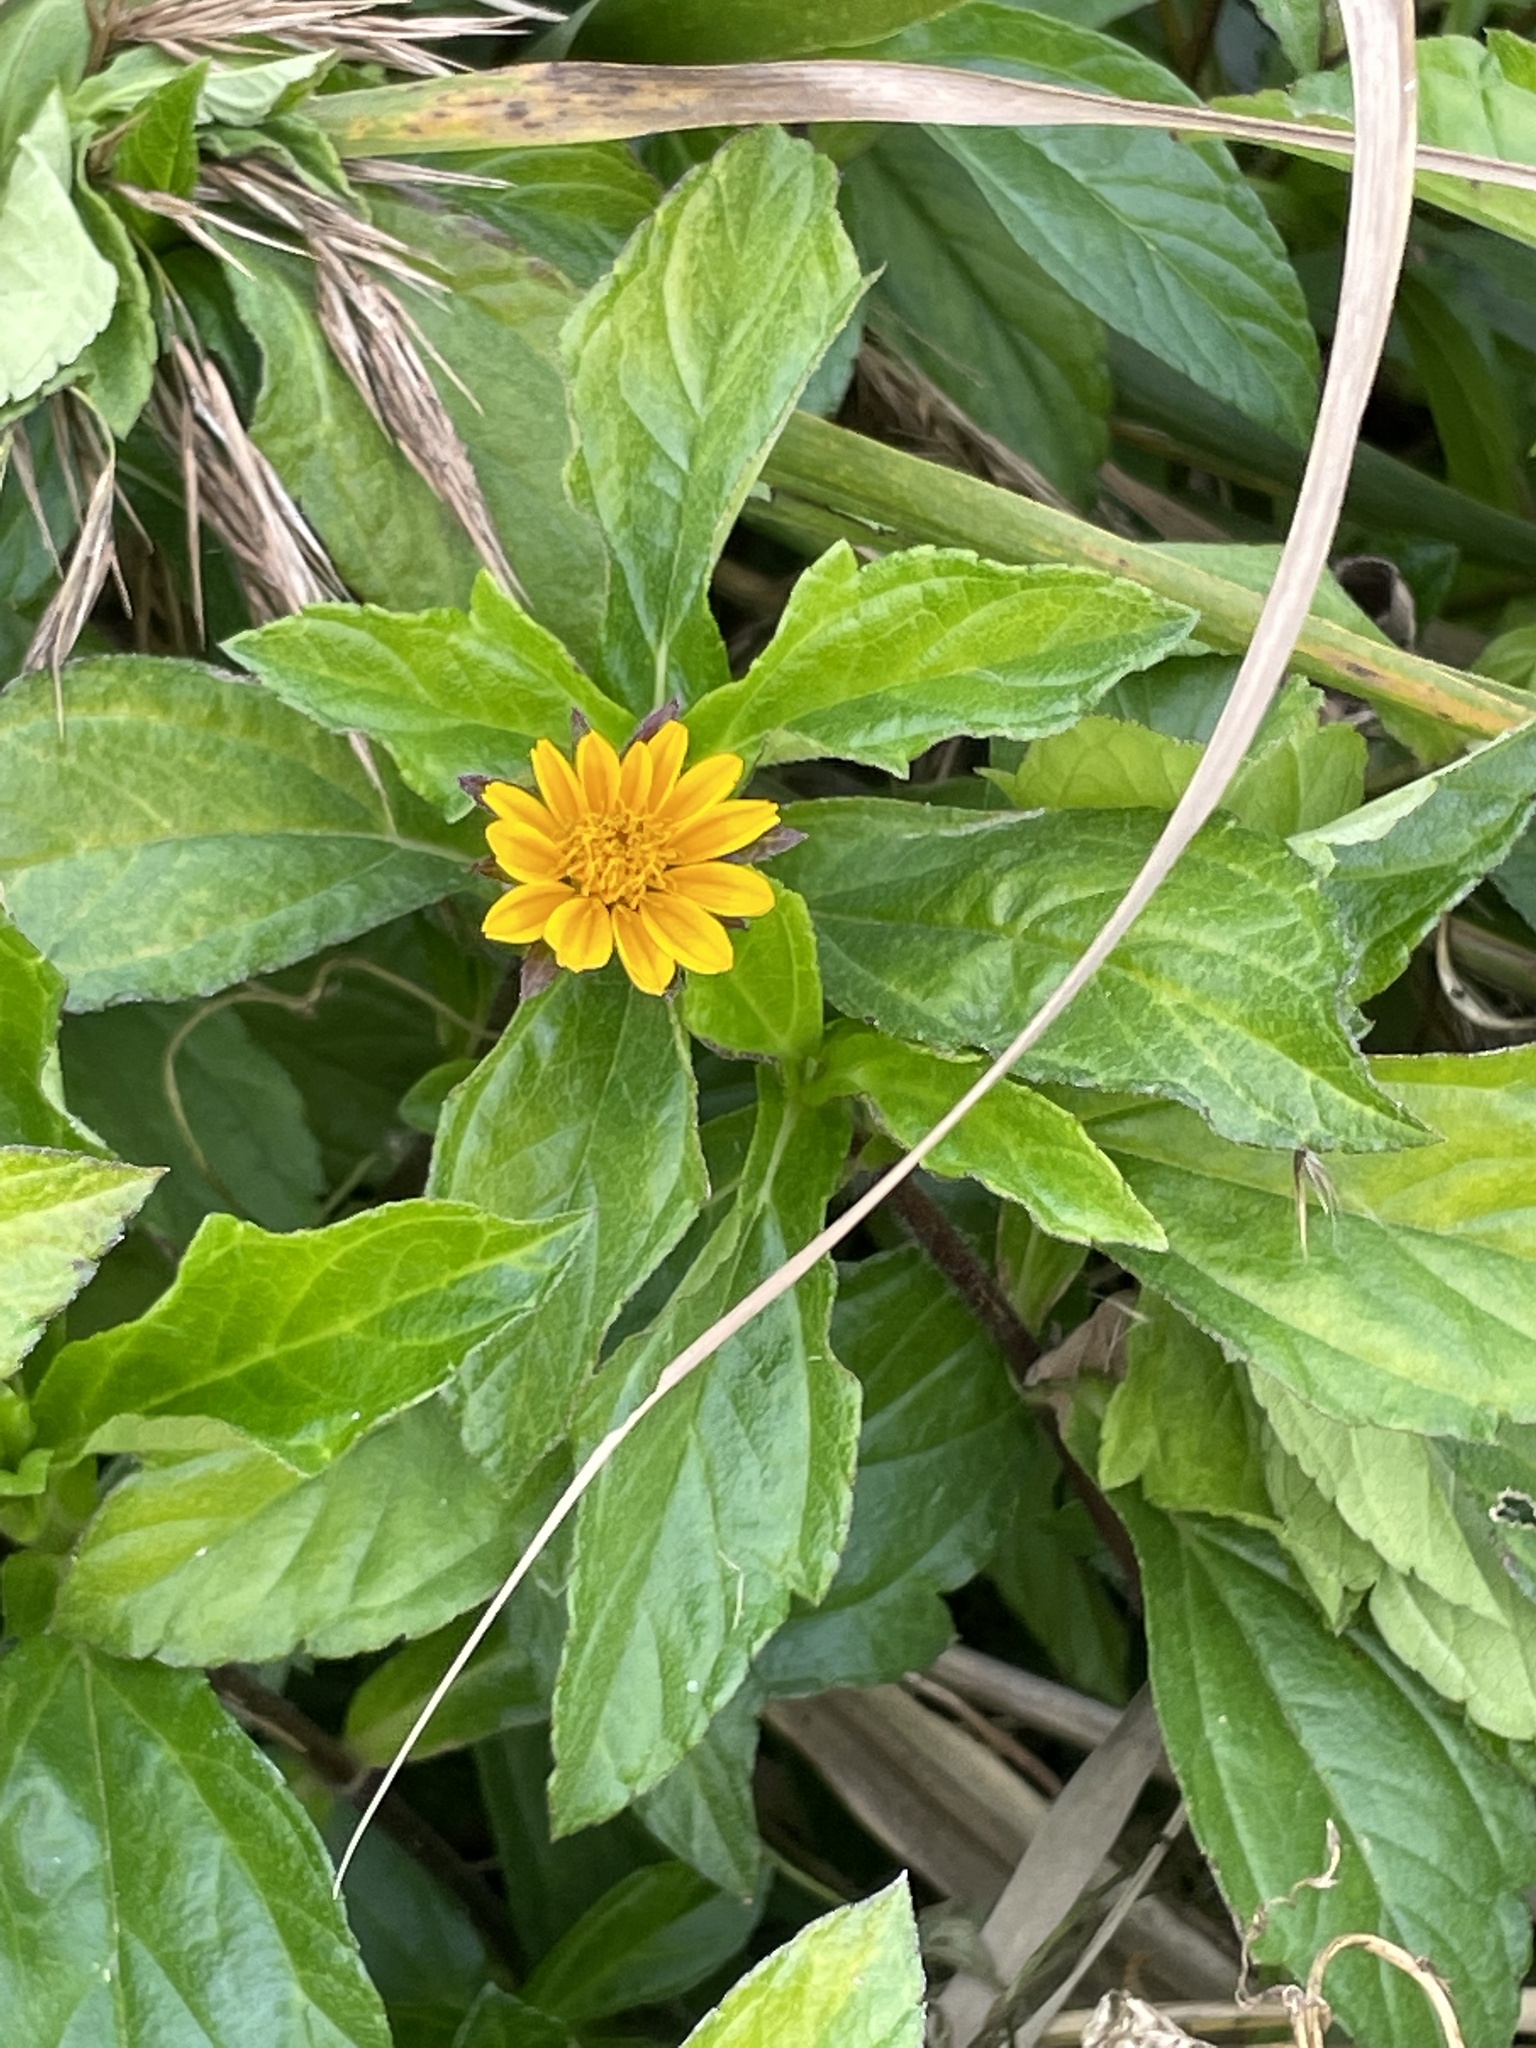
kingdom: Plantae
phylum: Tracheophyta
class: Magnoliopsida
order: Asterales
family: Asteraceae
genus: Sphagneticola
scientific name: Sphagneticola trilobata
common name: Bay biscayne creeping-oxeye
